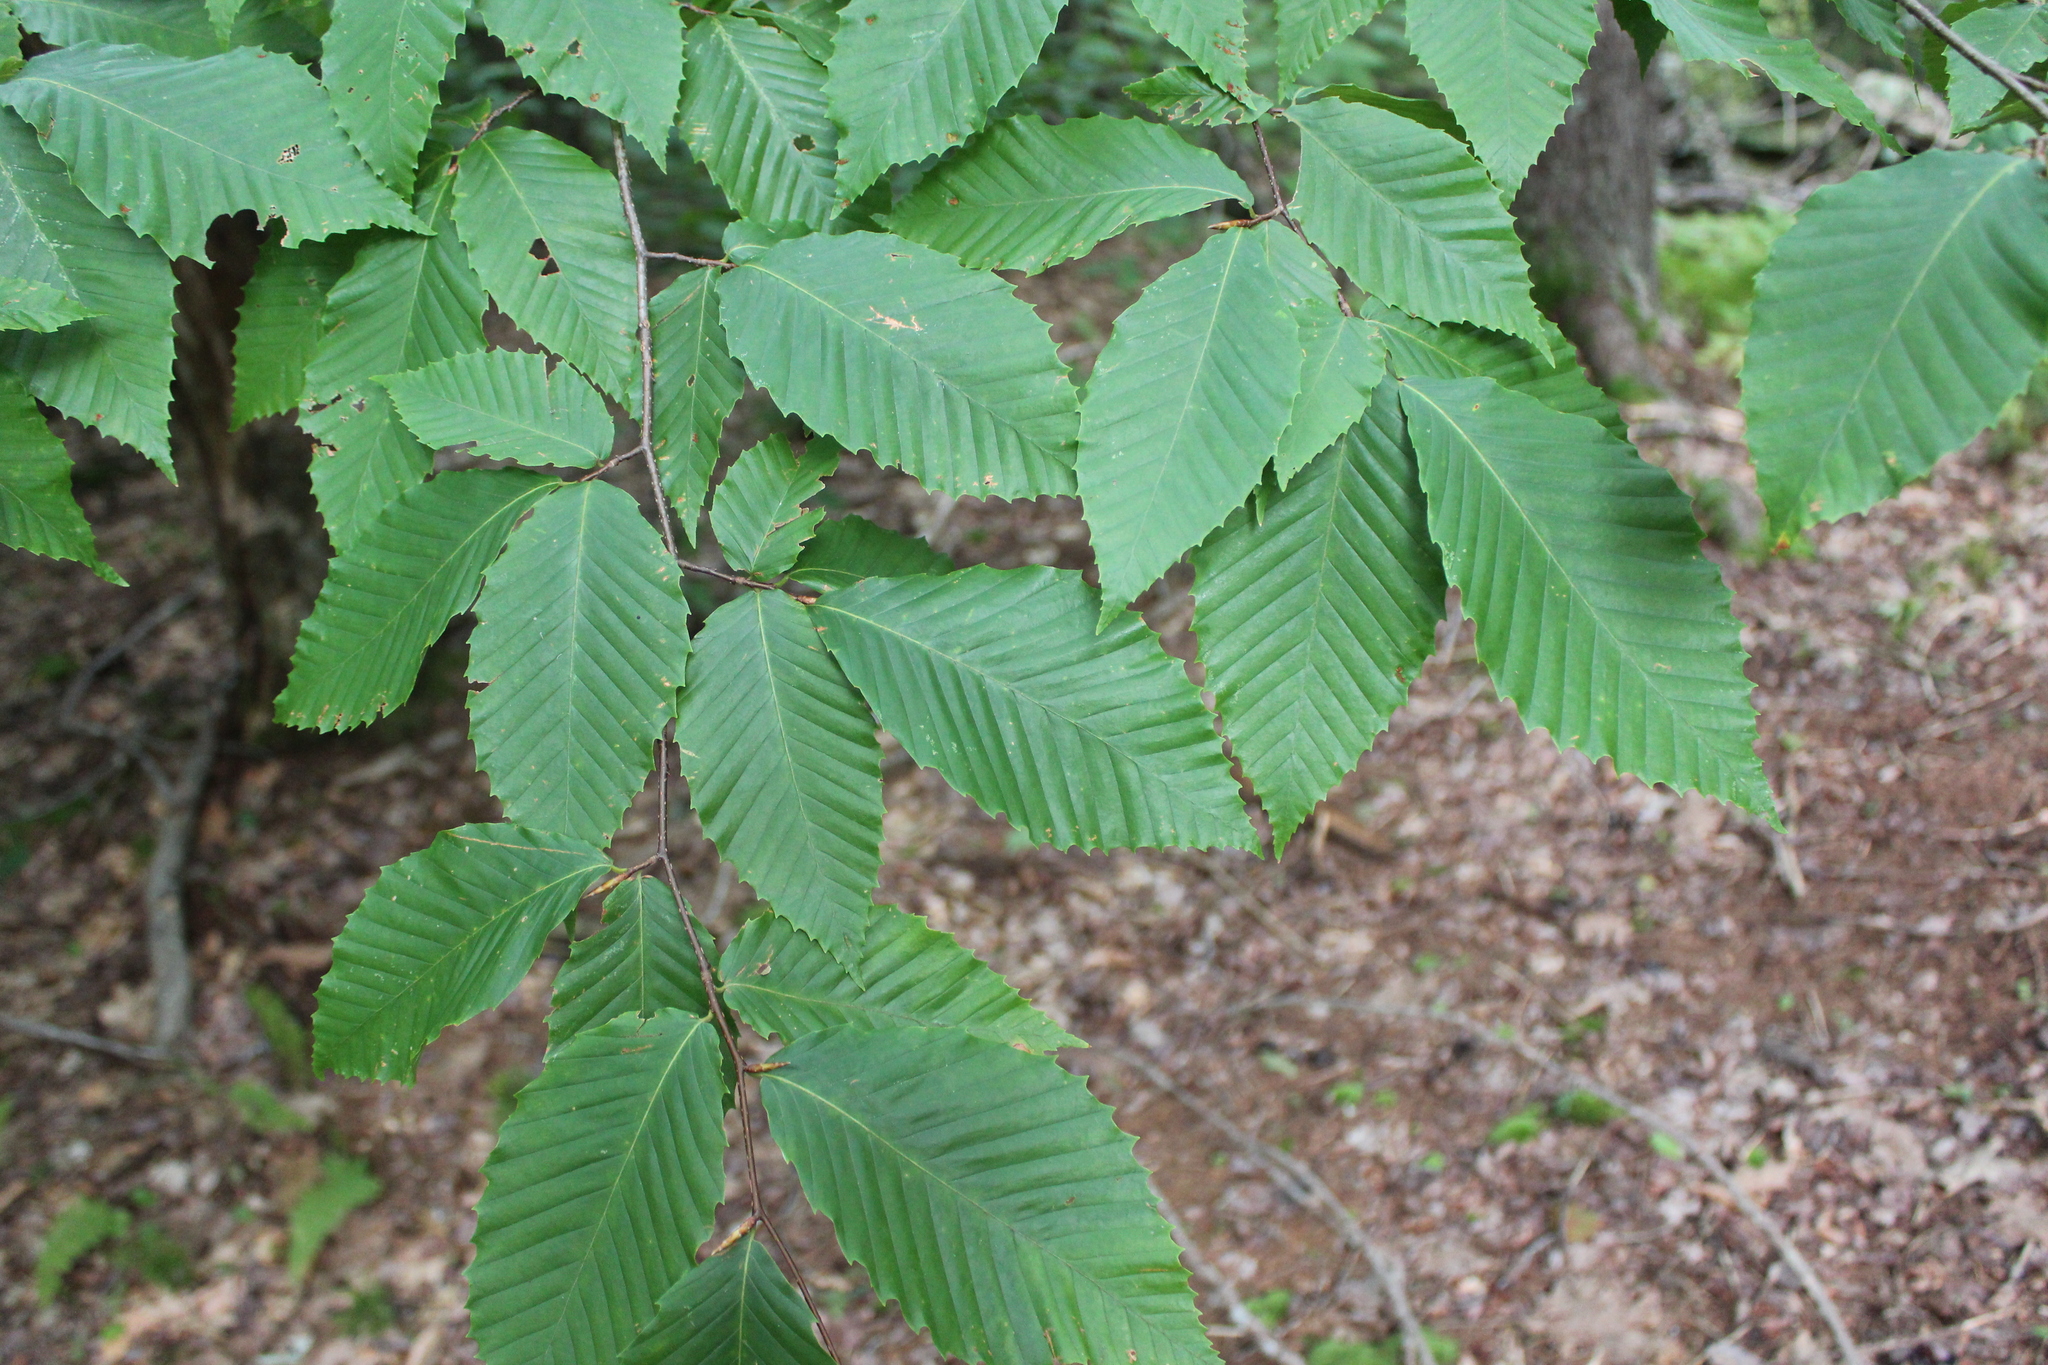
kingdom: Plantae
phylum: Tracheophyta
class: Magnoliopsida
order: Fagales
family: Fagaceae
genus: Fagus
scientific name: Fagus grandifolia
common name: American beech
